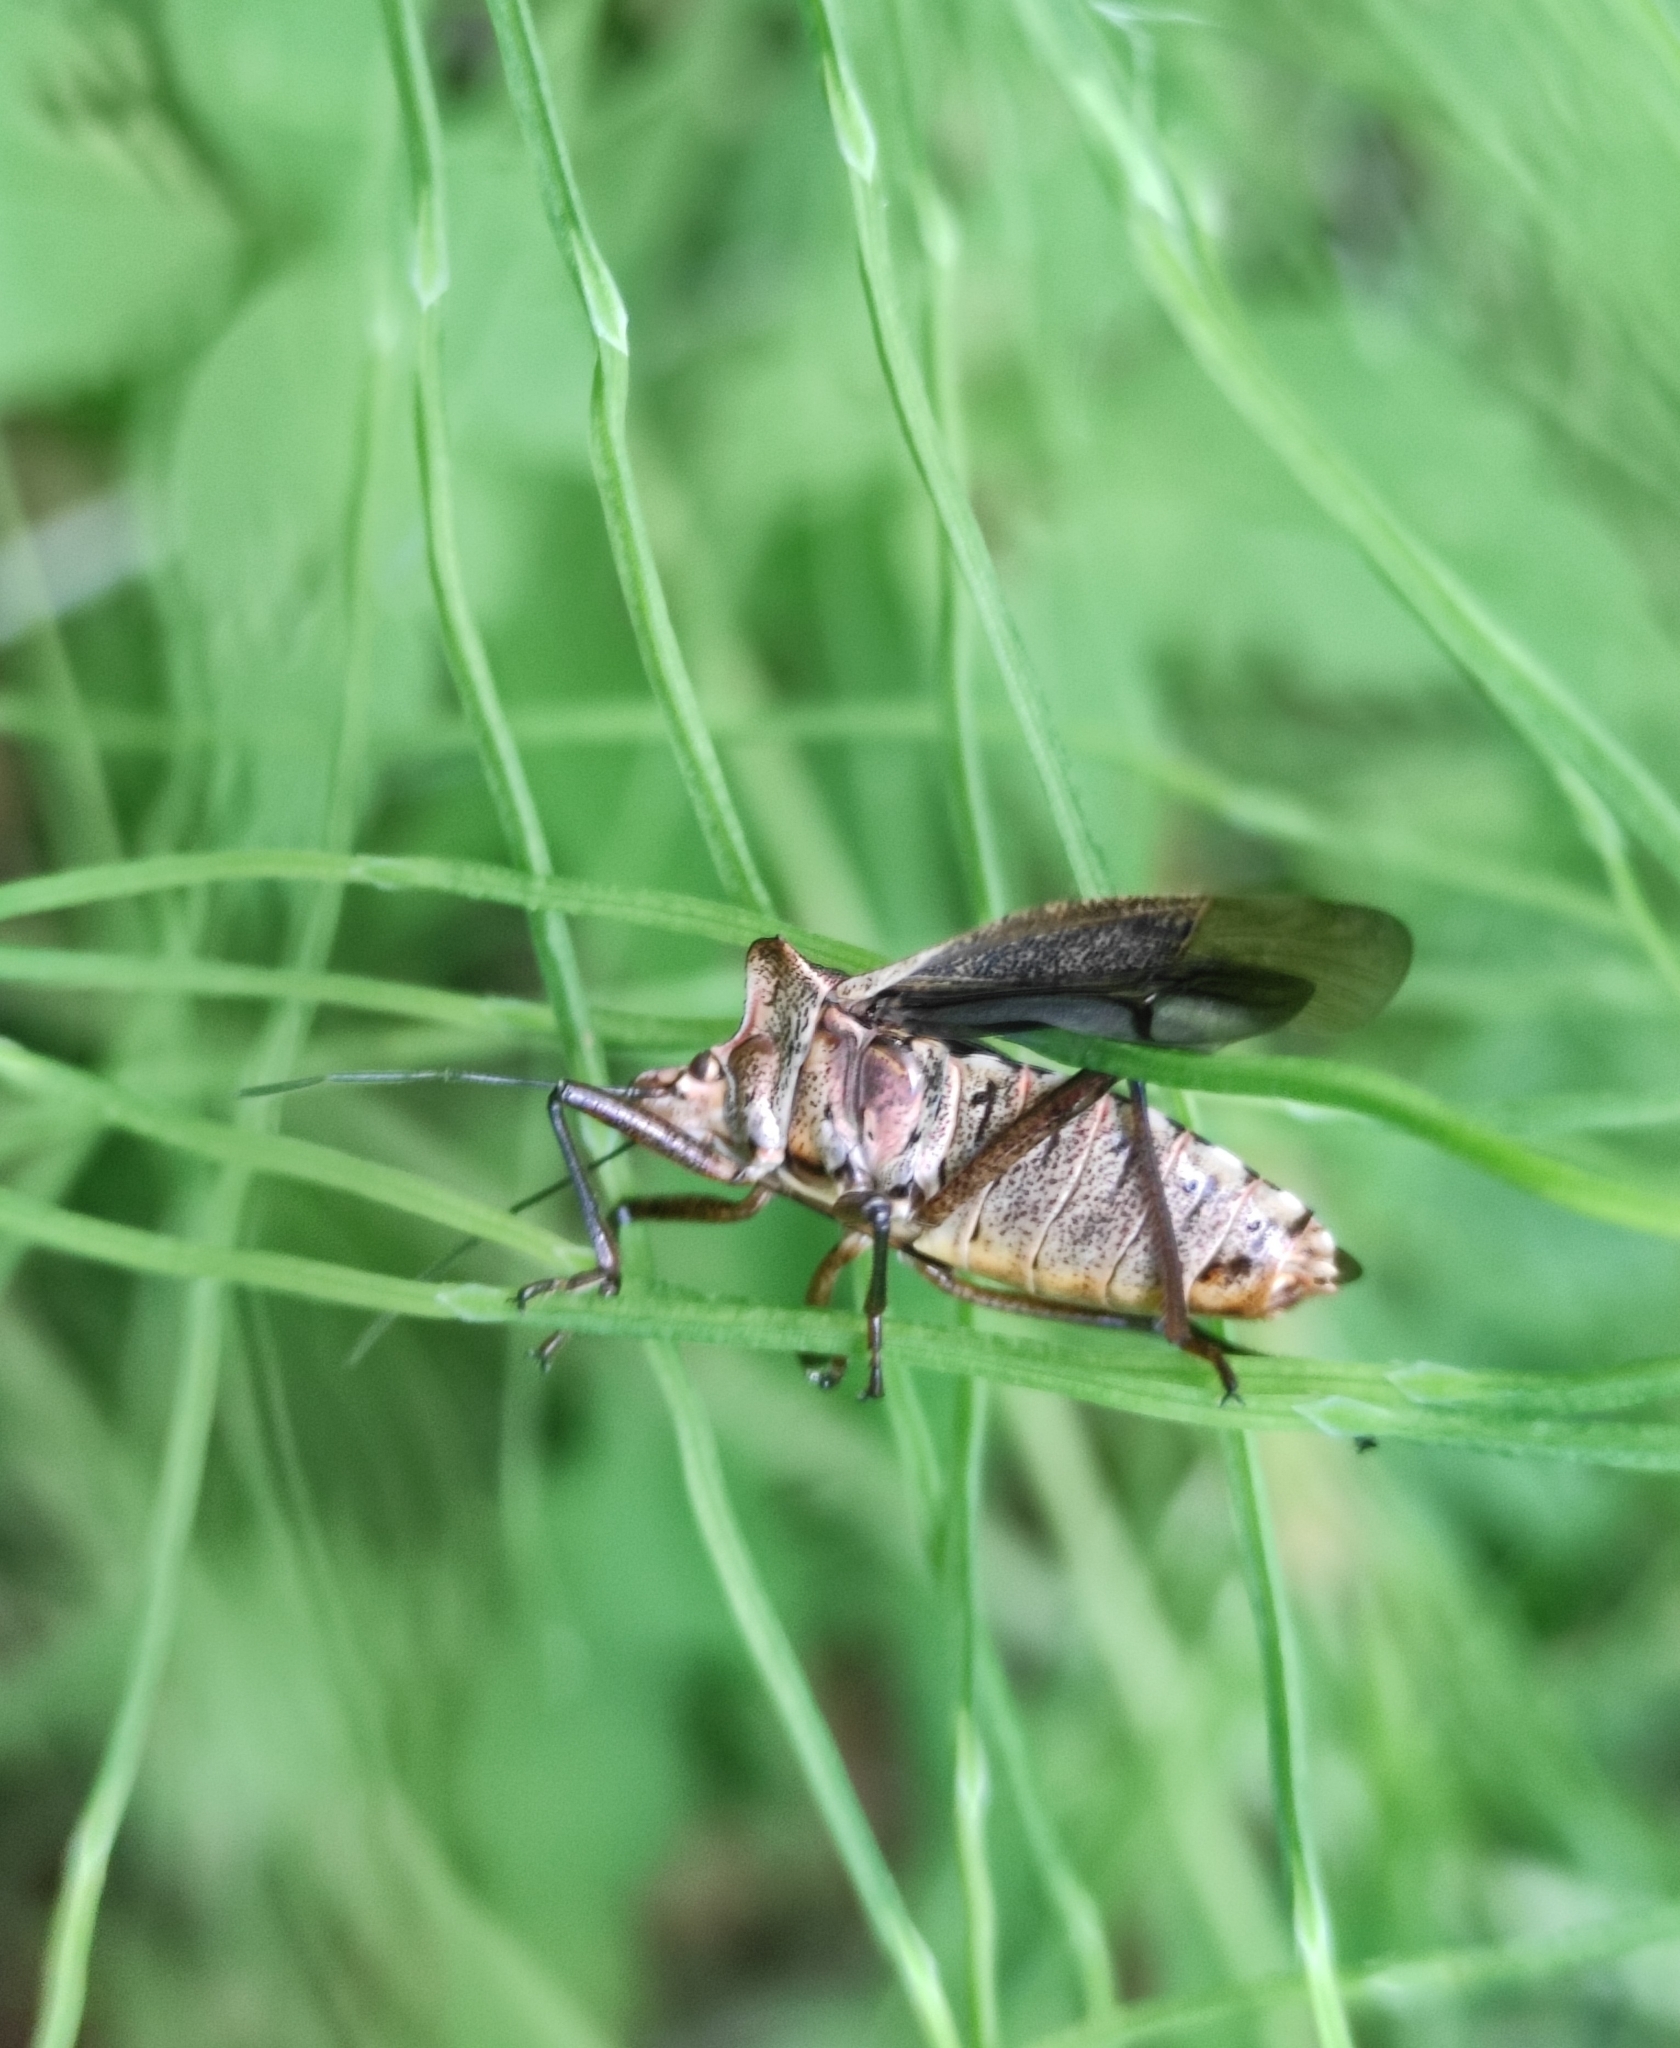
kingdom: Animalia
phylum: Arthropoda
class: Insecta
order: Hemiptera
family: Pentatomidae
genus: Pentatoma
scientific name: Pentatoma rufipes
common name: Forest bug
